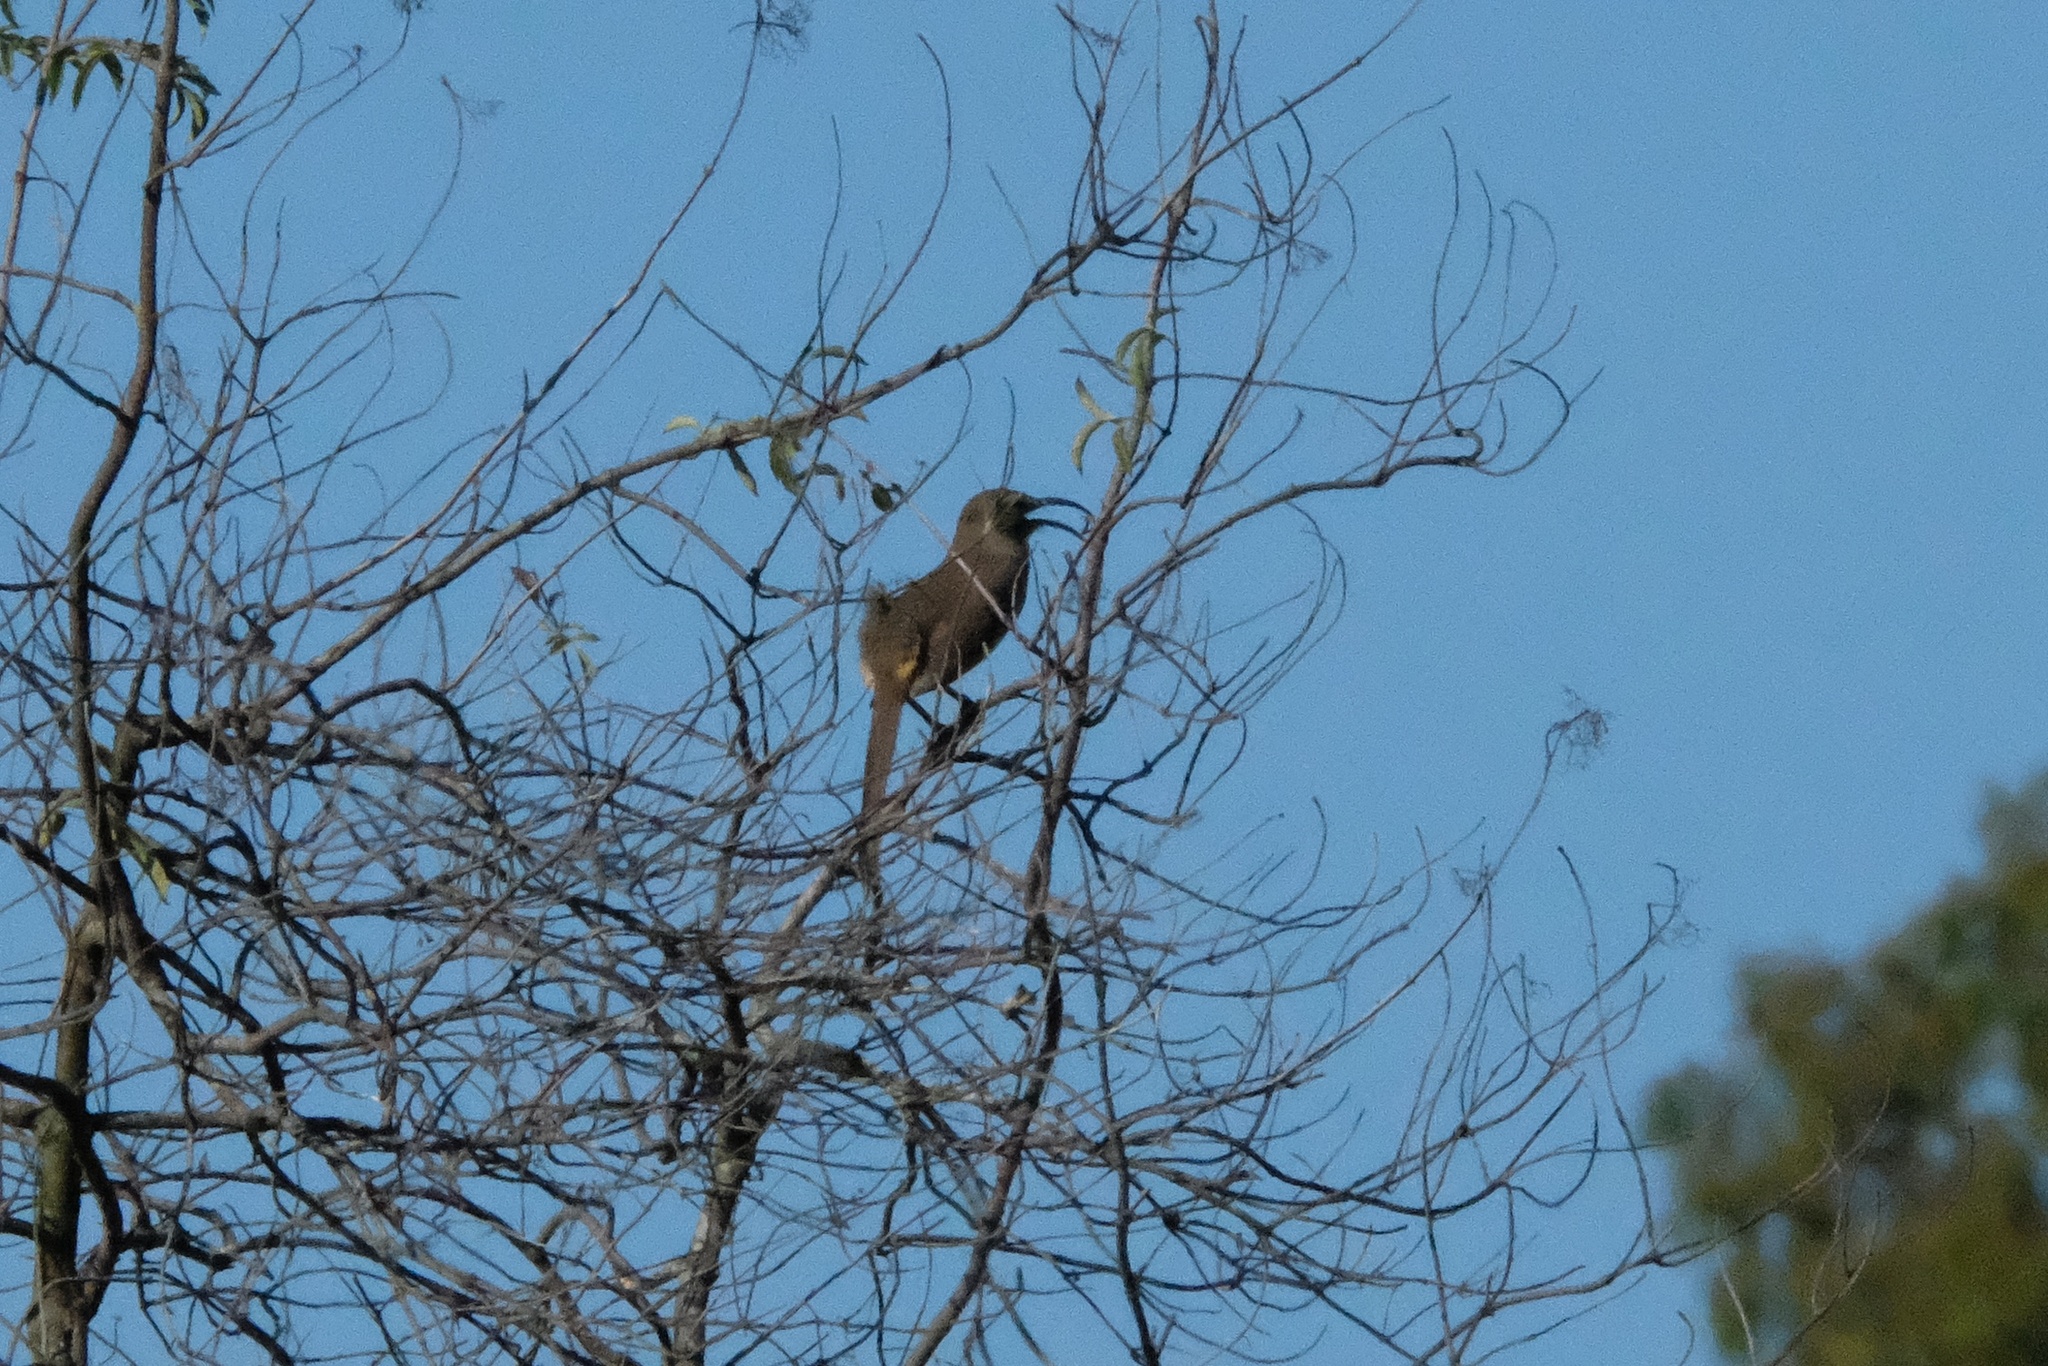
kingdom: Animalia
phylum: Chordata
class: Aves
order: Passeriformes
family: Mimidae
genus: Toxostoma
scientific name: Toxostoma redivivum
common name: California thrasher
